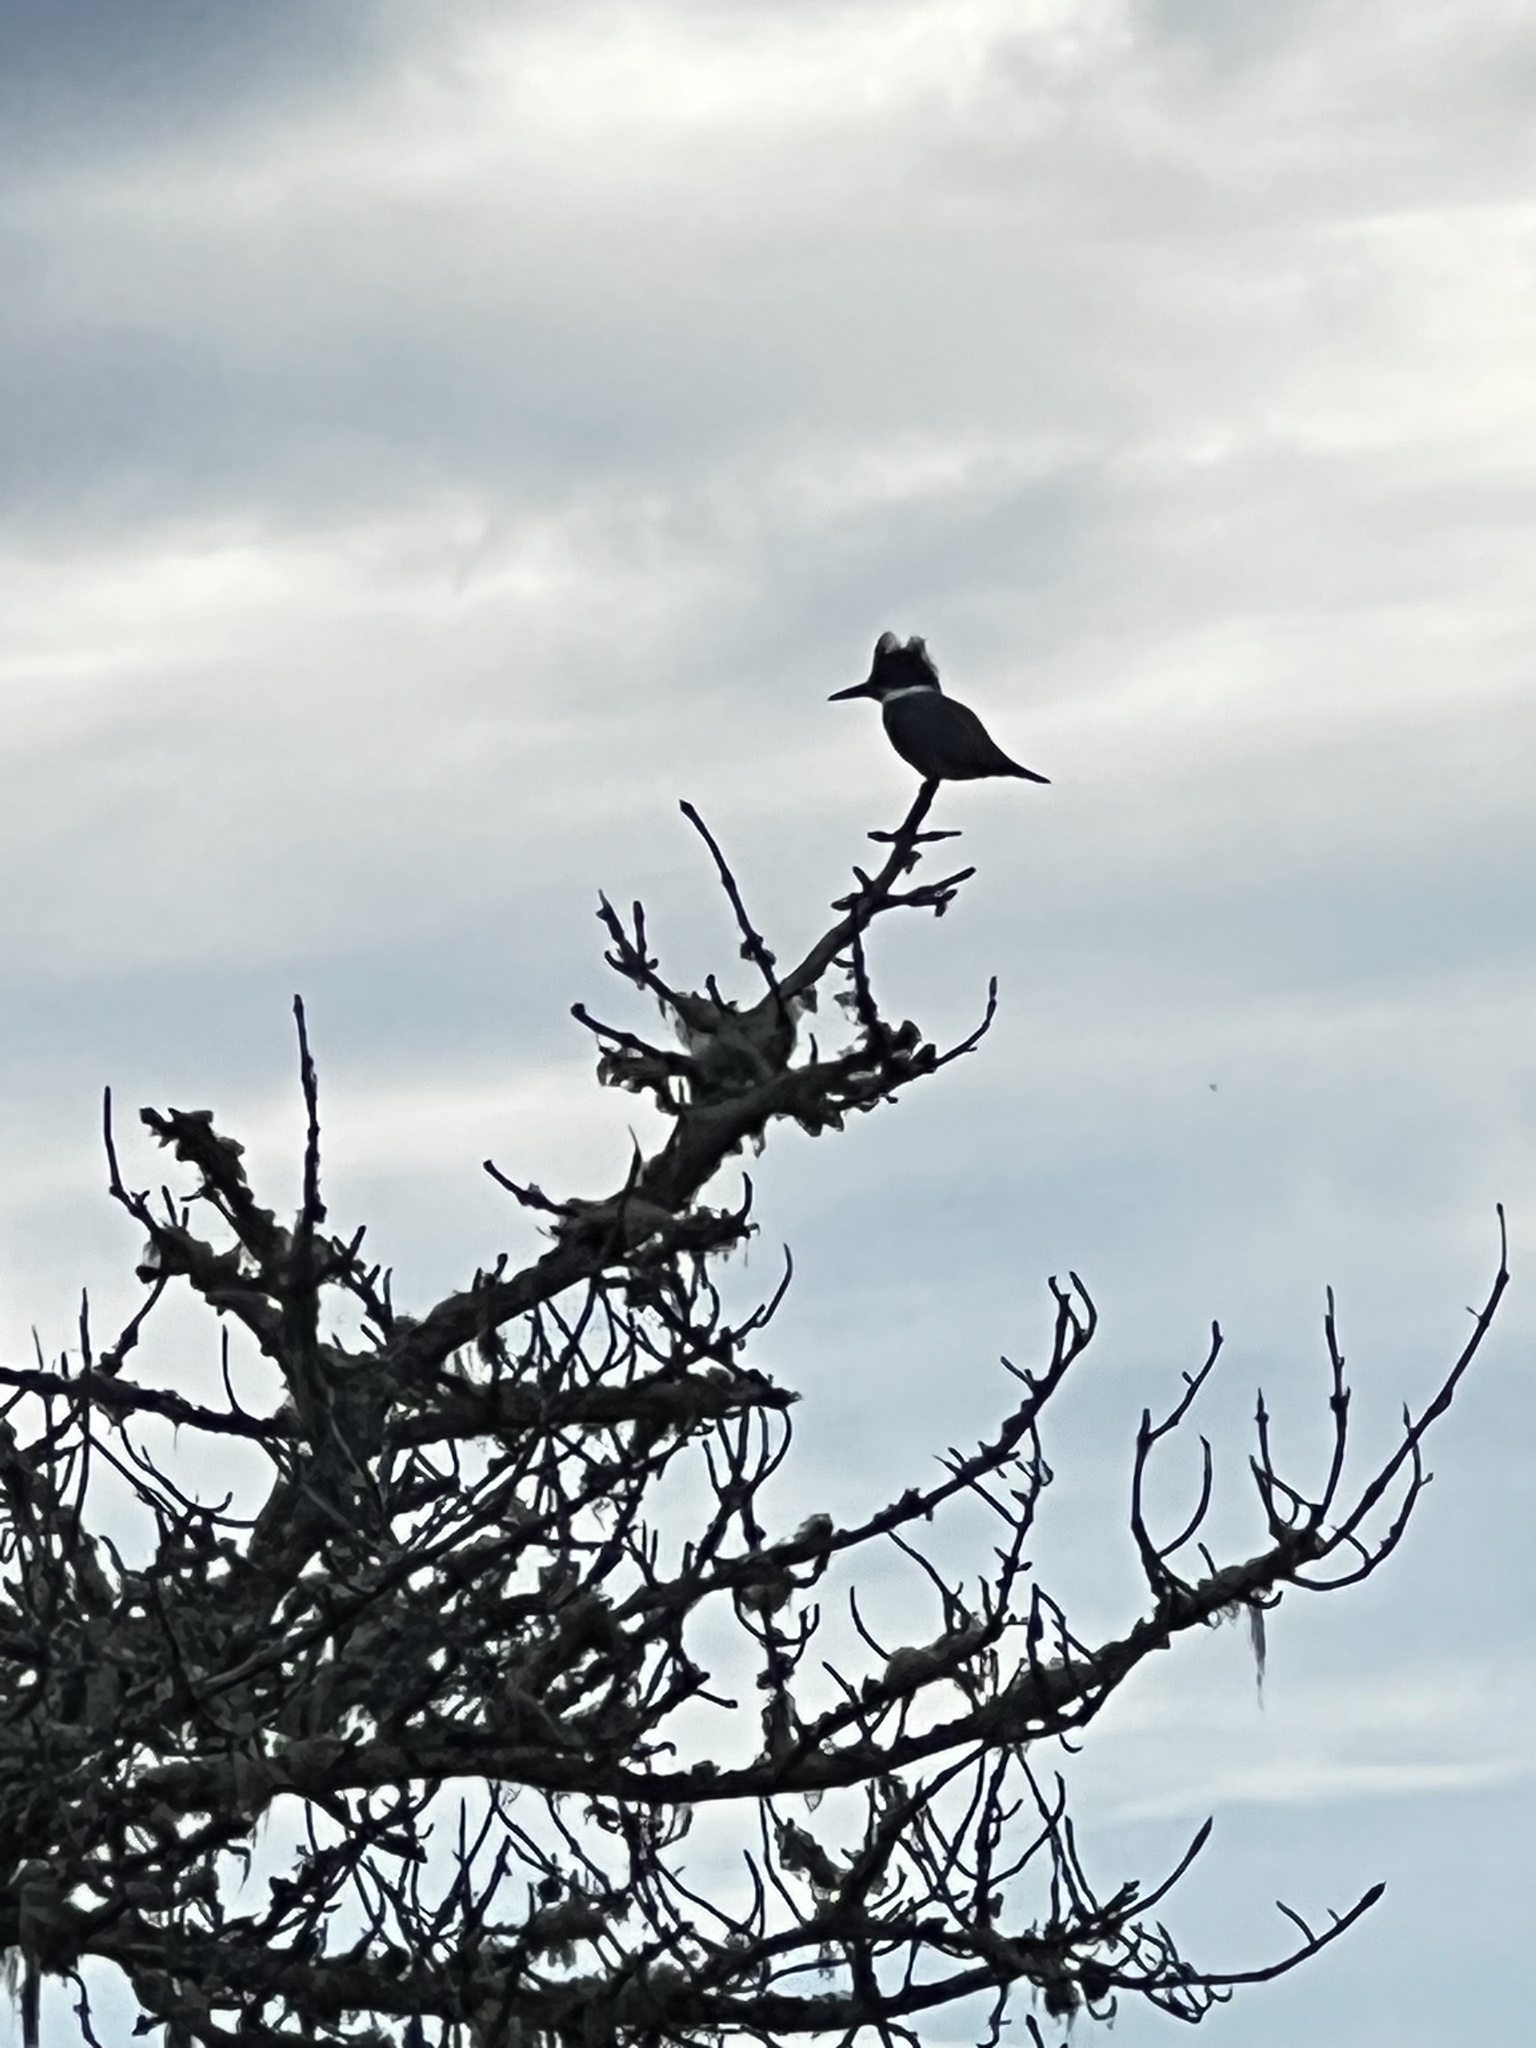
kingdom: Animalia
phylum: Chordata
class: Aves
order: Coraciiformes
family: Alcedinidae
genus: Megaceryle
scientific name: Megaceryle alcyon
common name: Belted kingfisher
